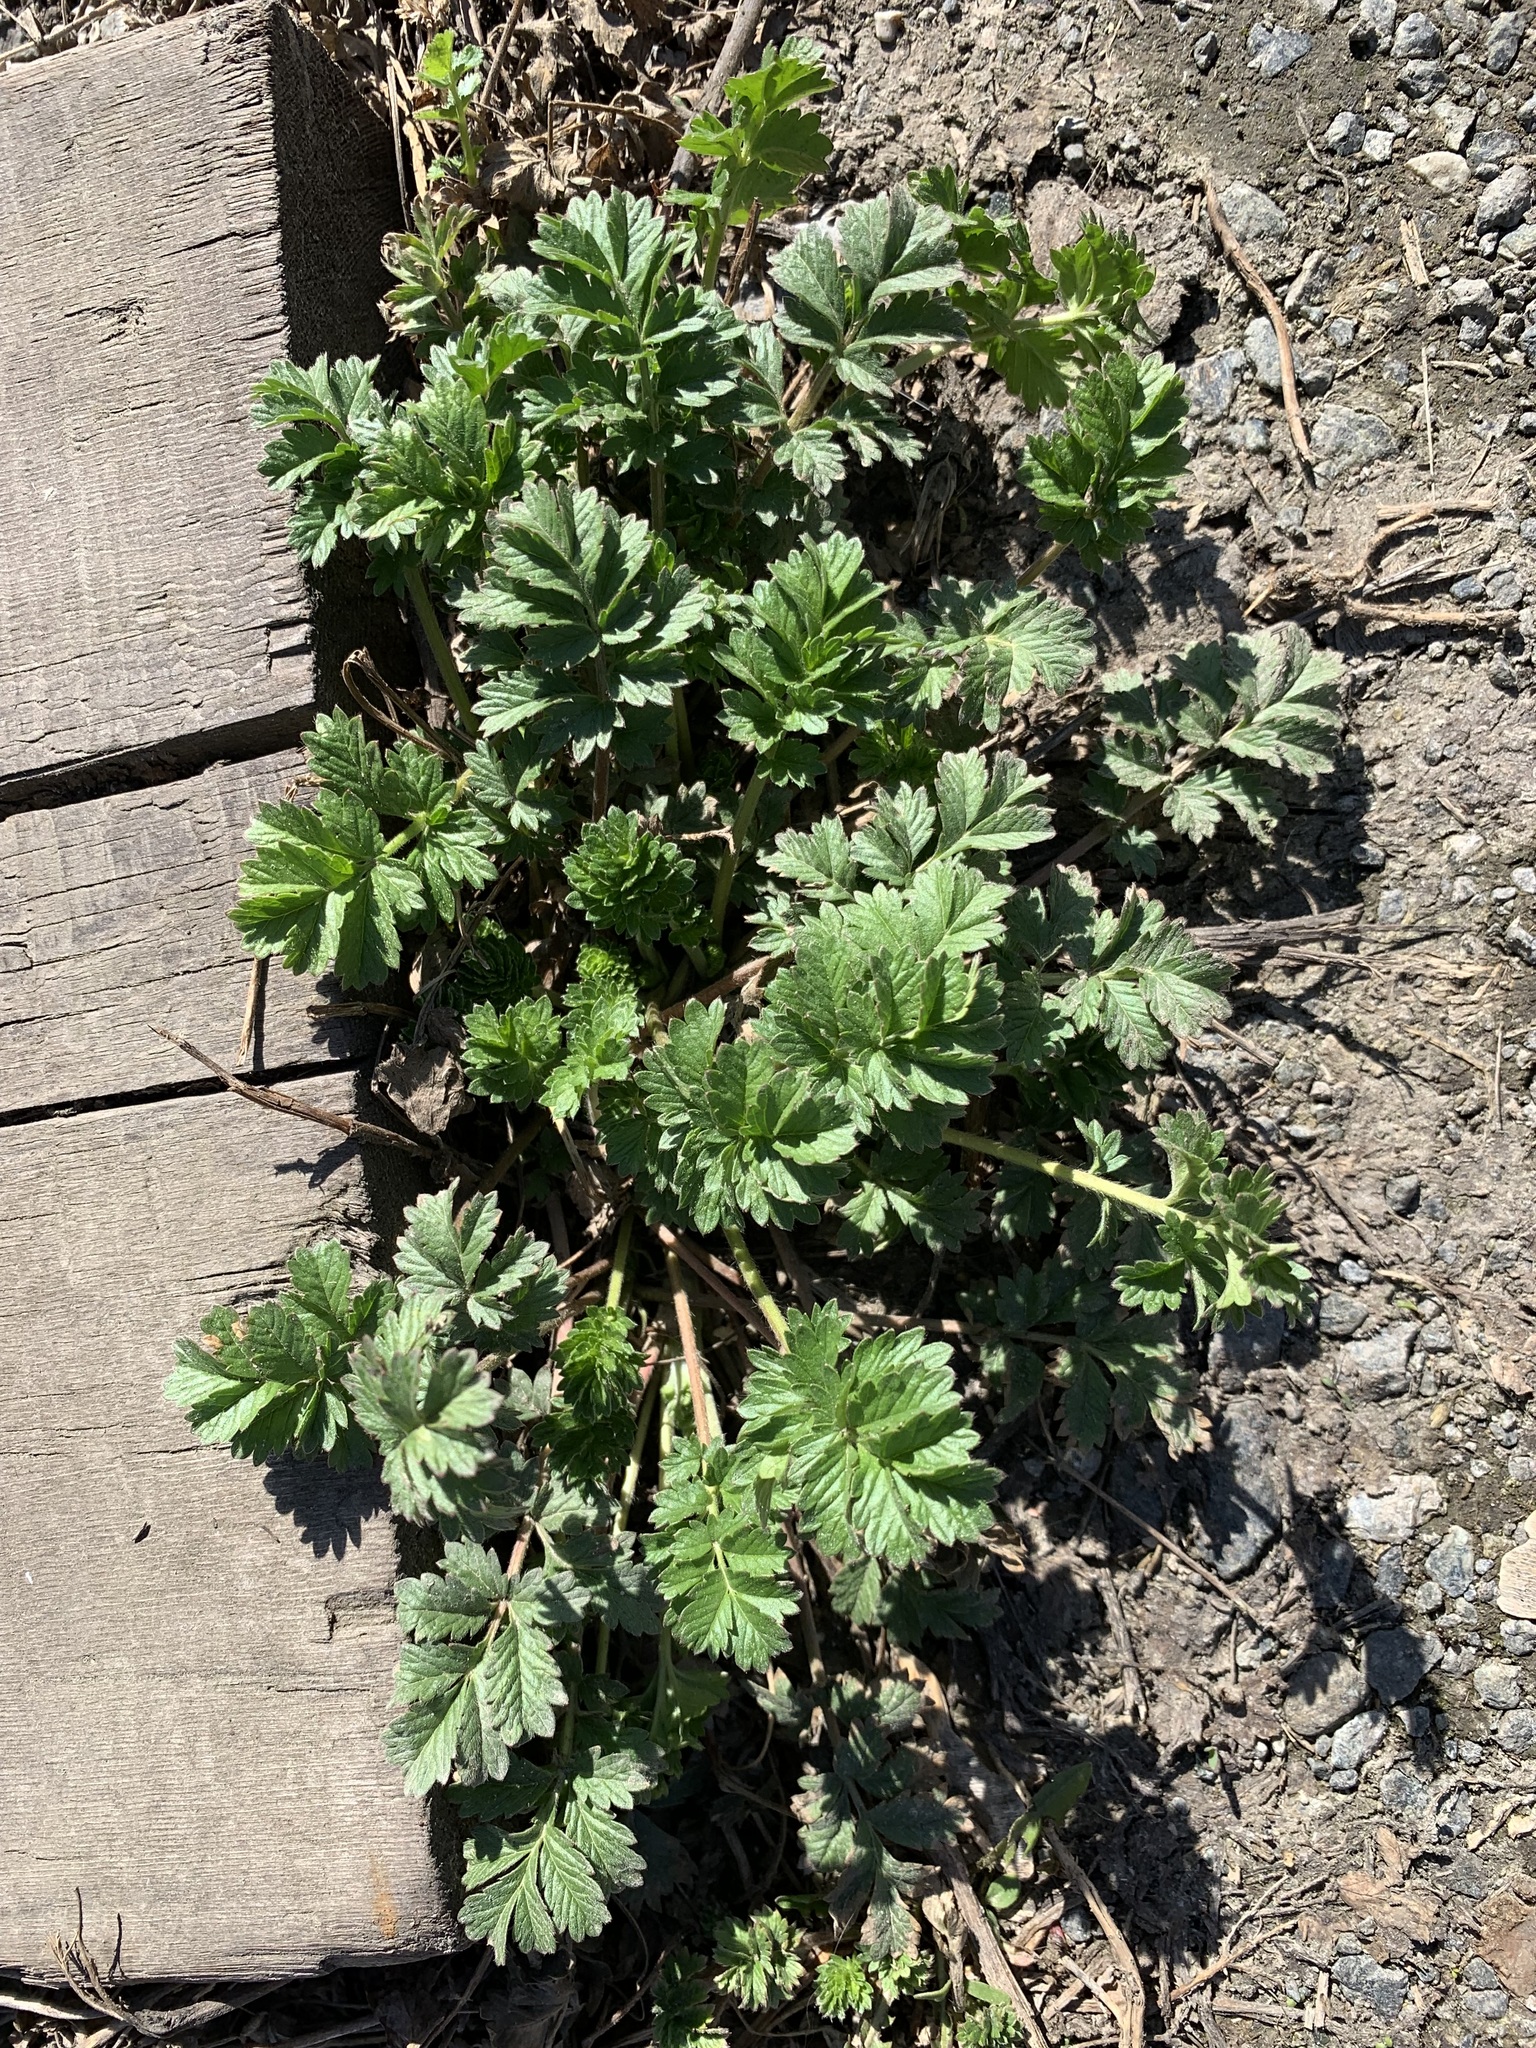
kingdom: Plantae
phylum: Tracheophyta
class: Magnoliopsida
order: Rosales
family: Rosaceae
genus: Potentilla
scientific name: Potentilla supina
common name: Prostrate cinquefoil
